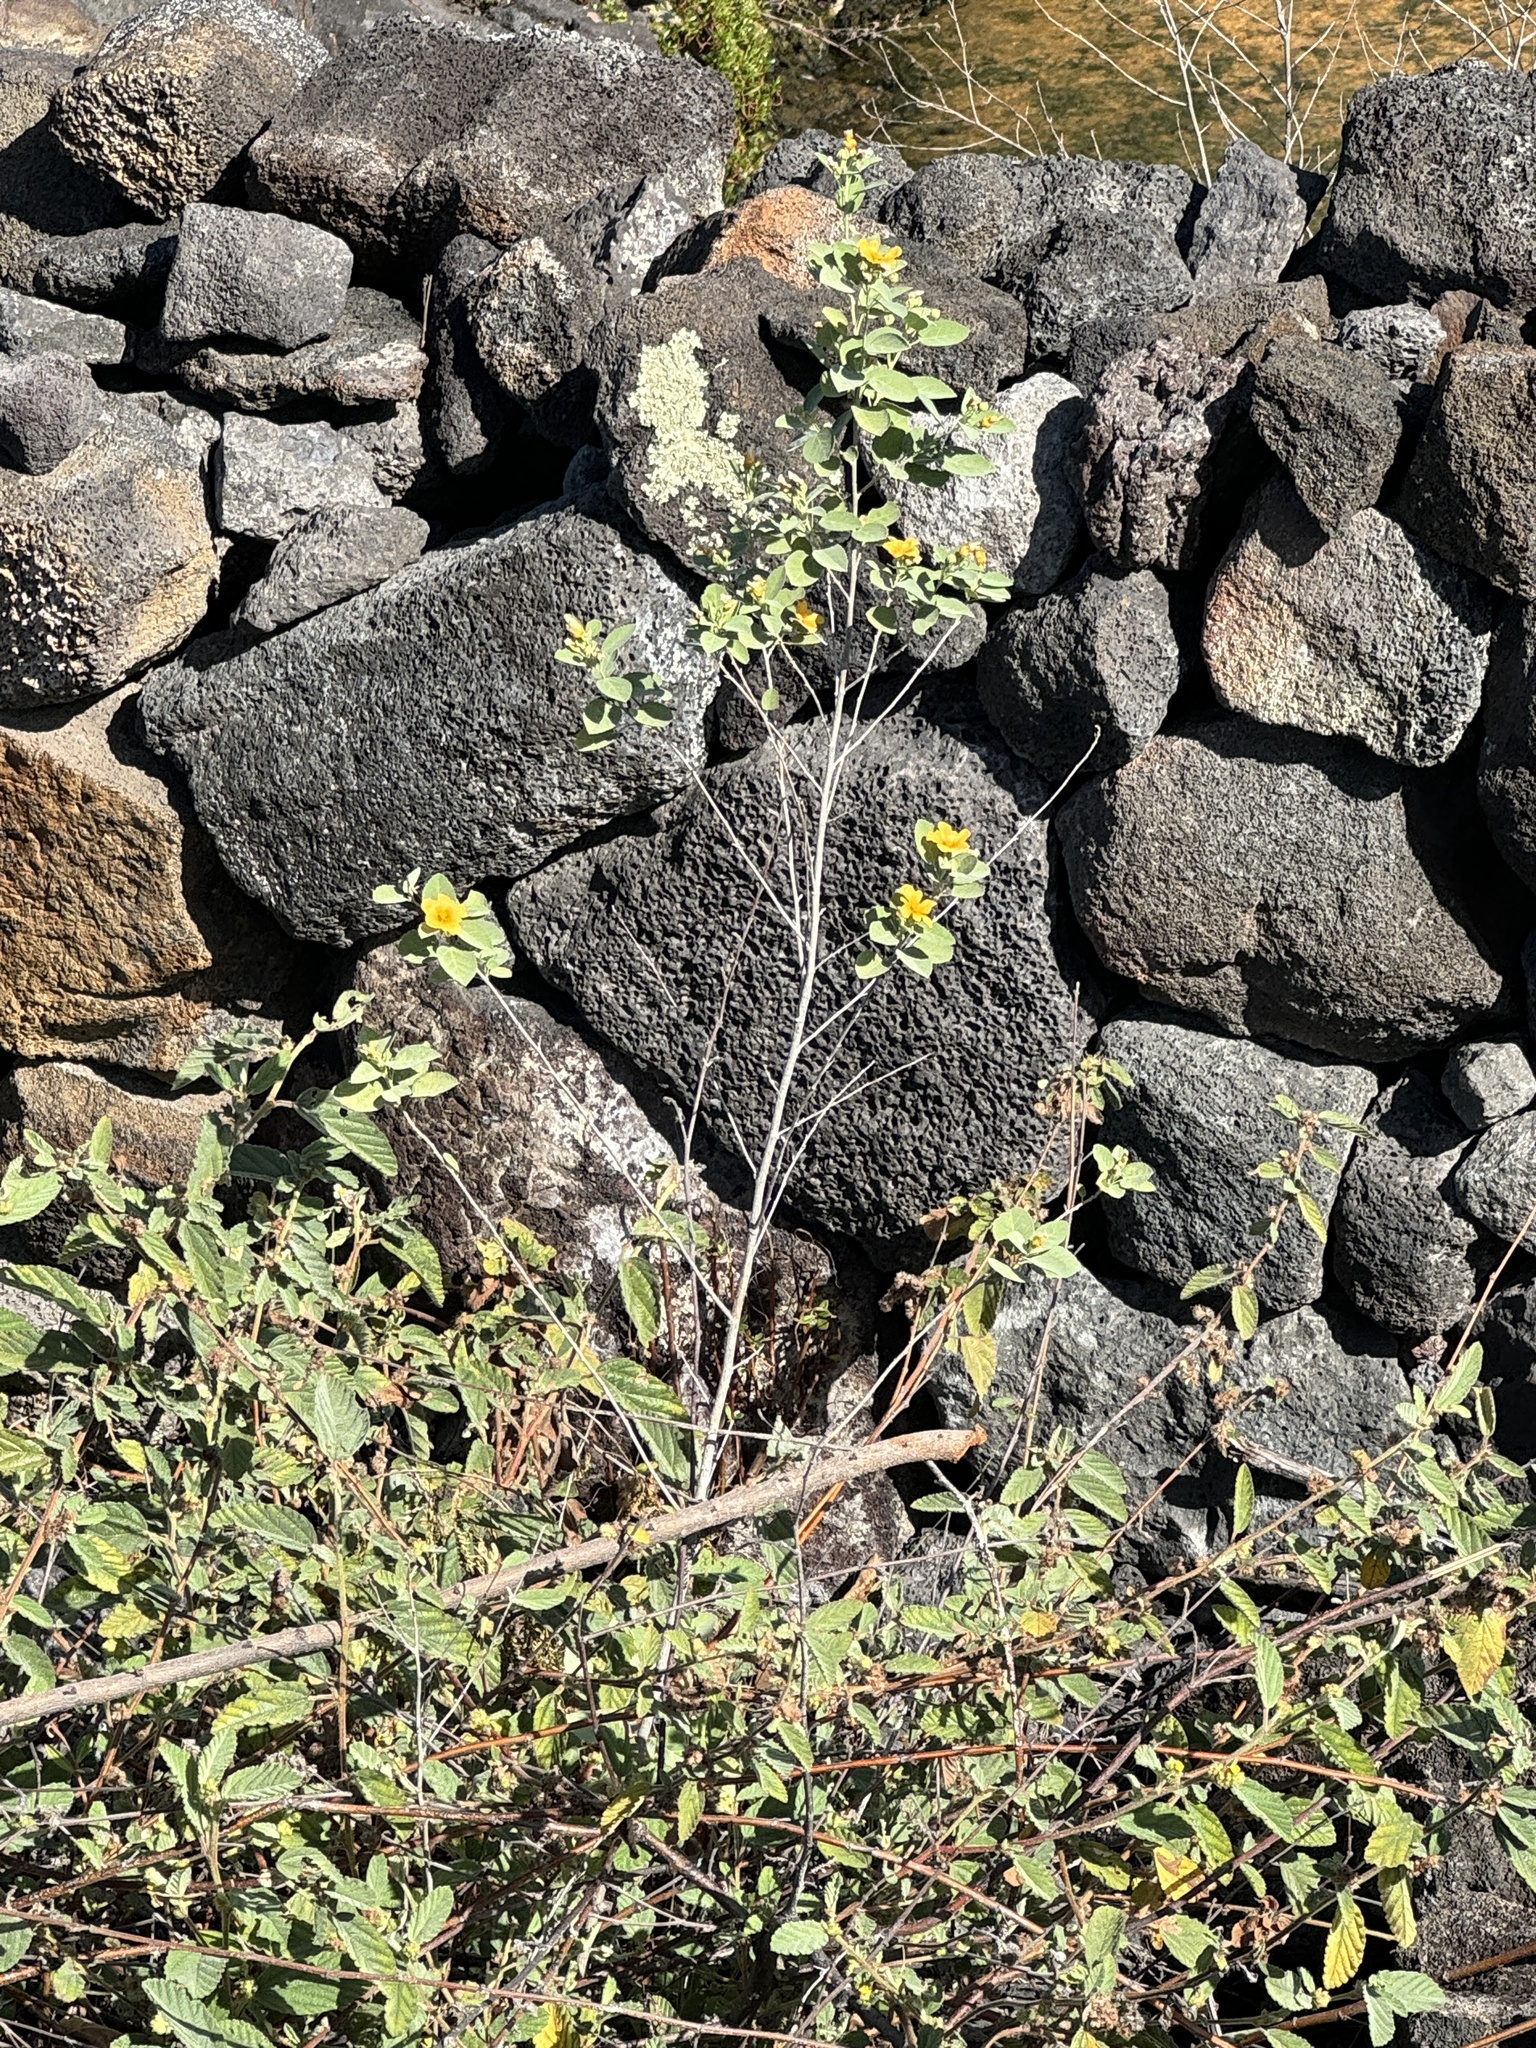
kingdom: Plantae
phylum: Tracheophyta
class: Magnoliopsida
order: Malvales
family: Malvaceae
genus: Sida
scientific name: Sida fallax
